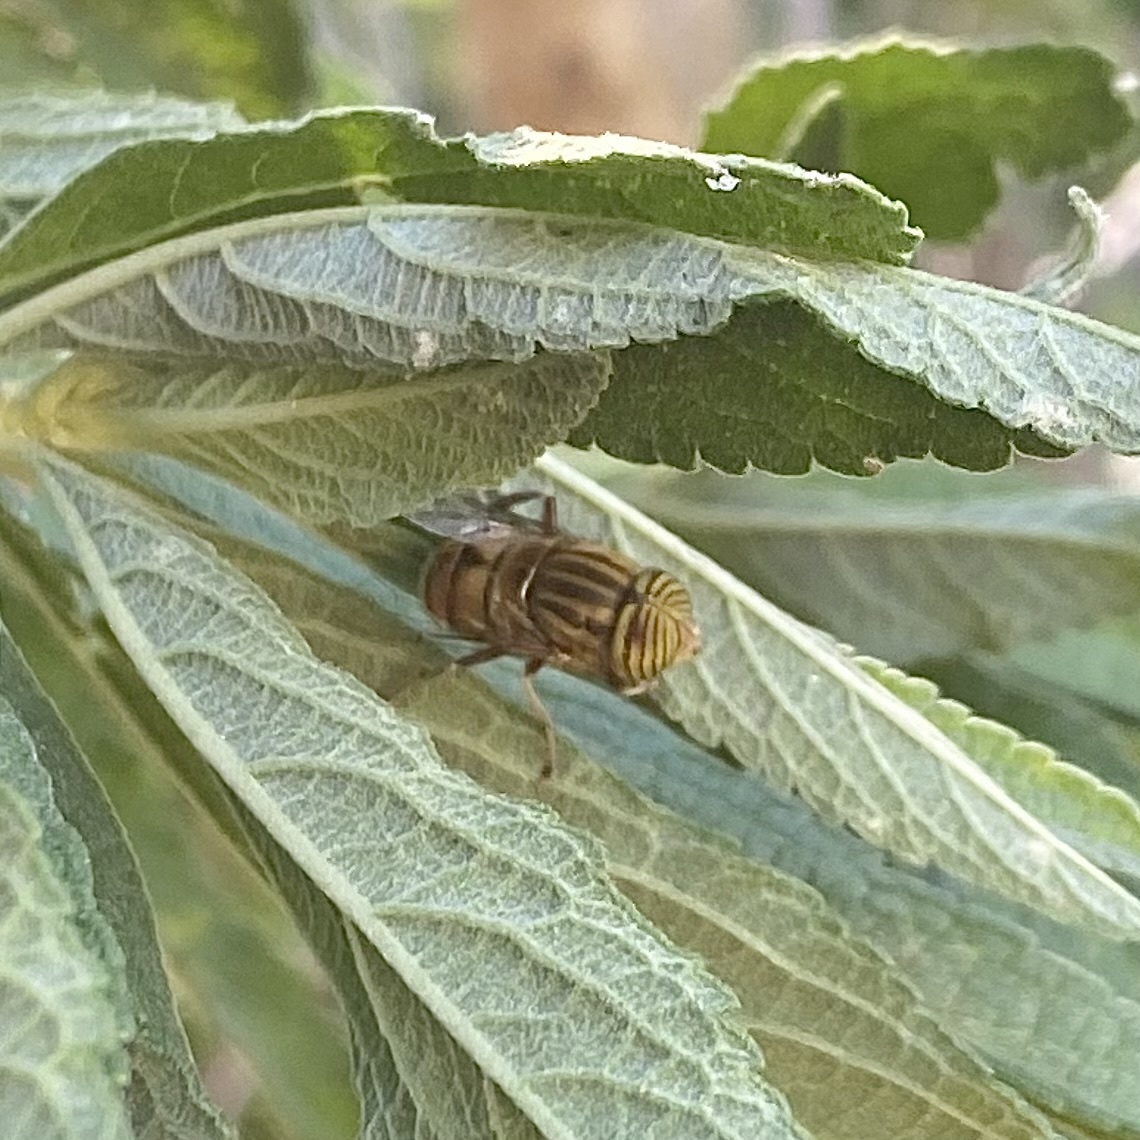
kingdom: Animalia
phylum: Arthropoda
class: Insecta
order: Diptera
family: Syrphidae
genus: Eristalinus
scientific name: Eristalinus barclayi
